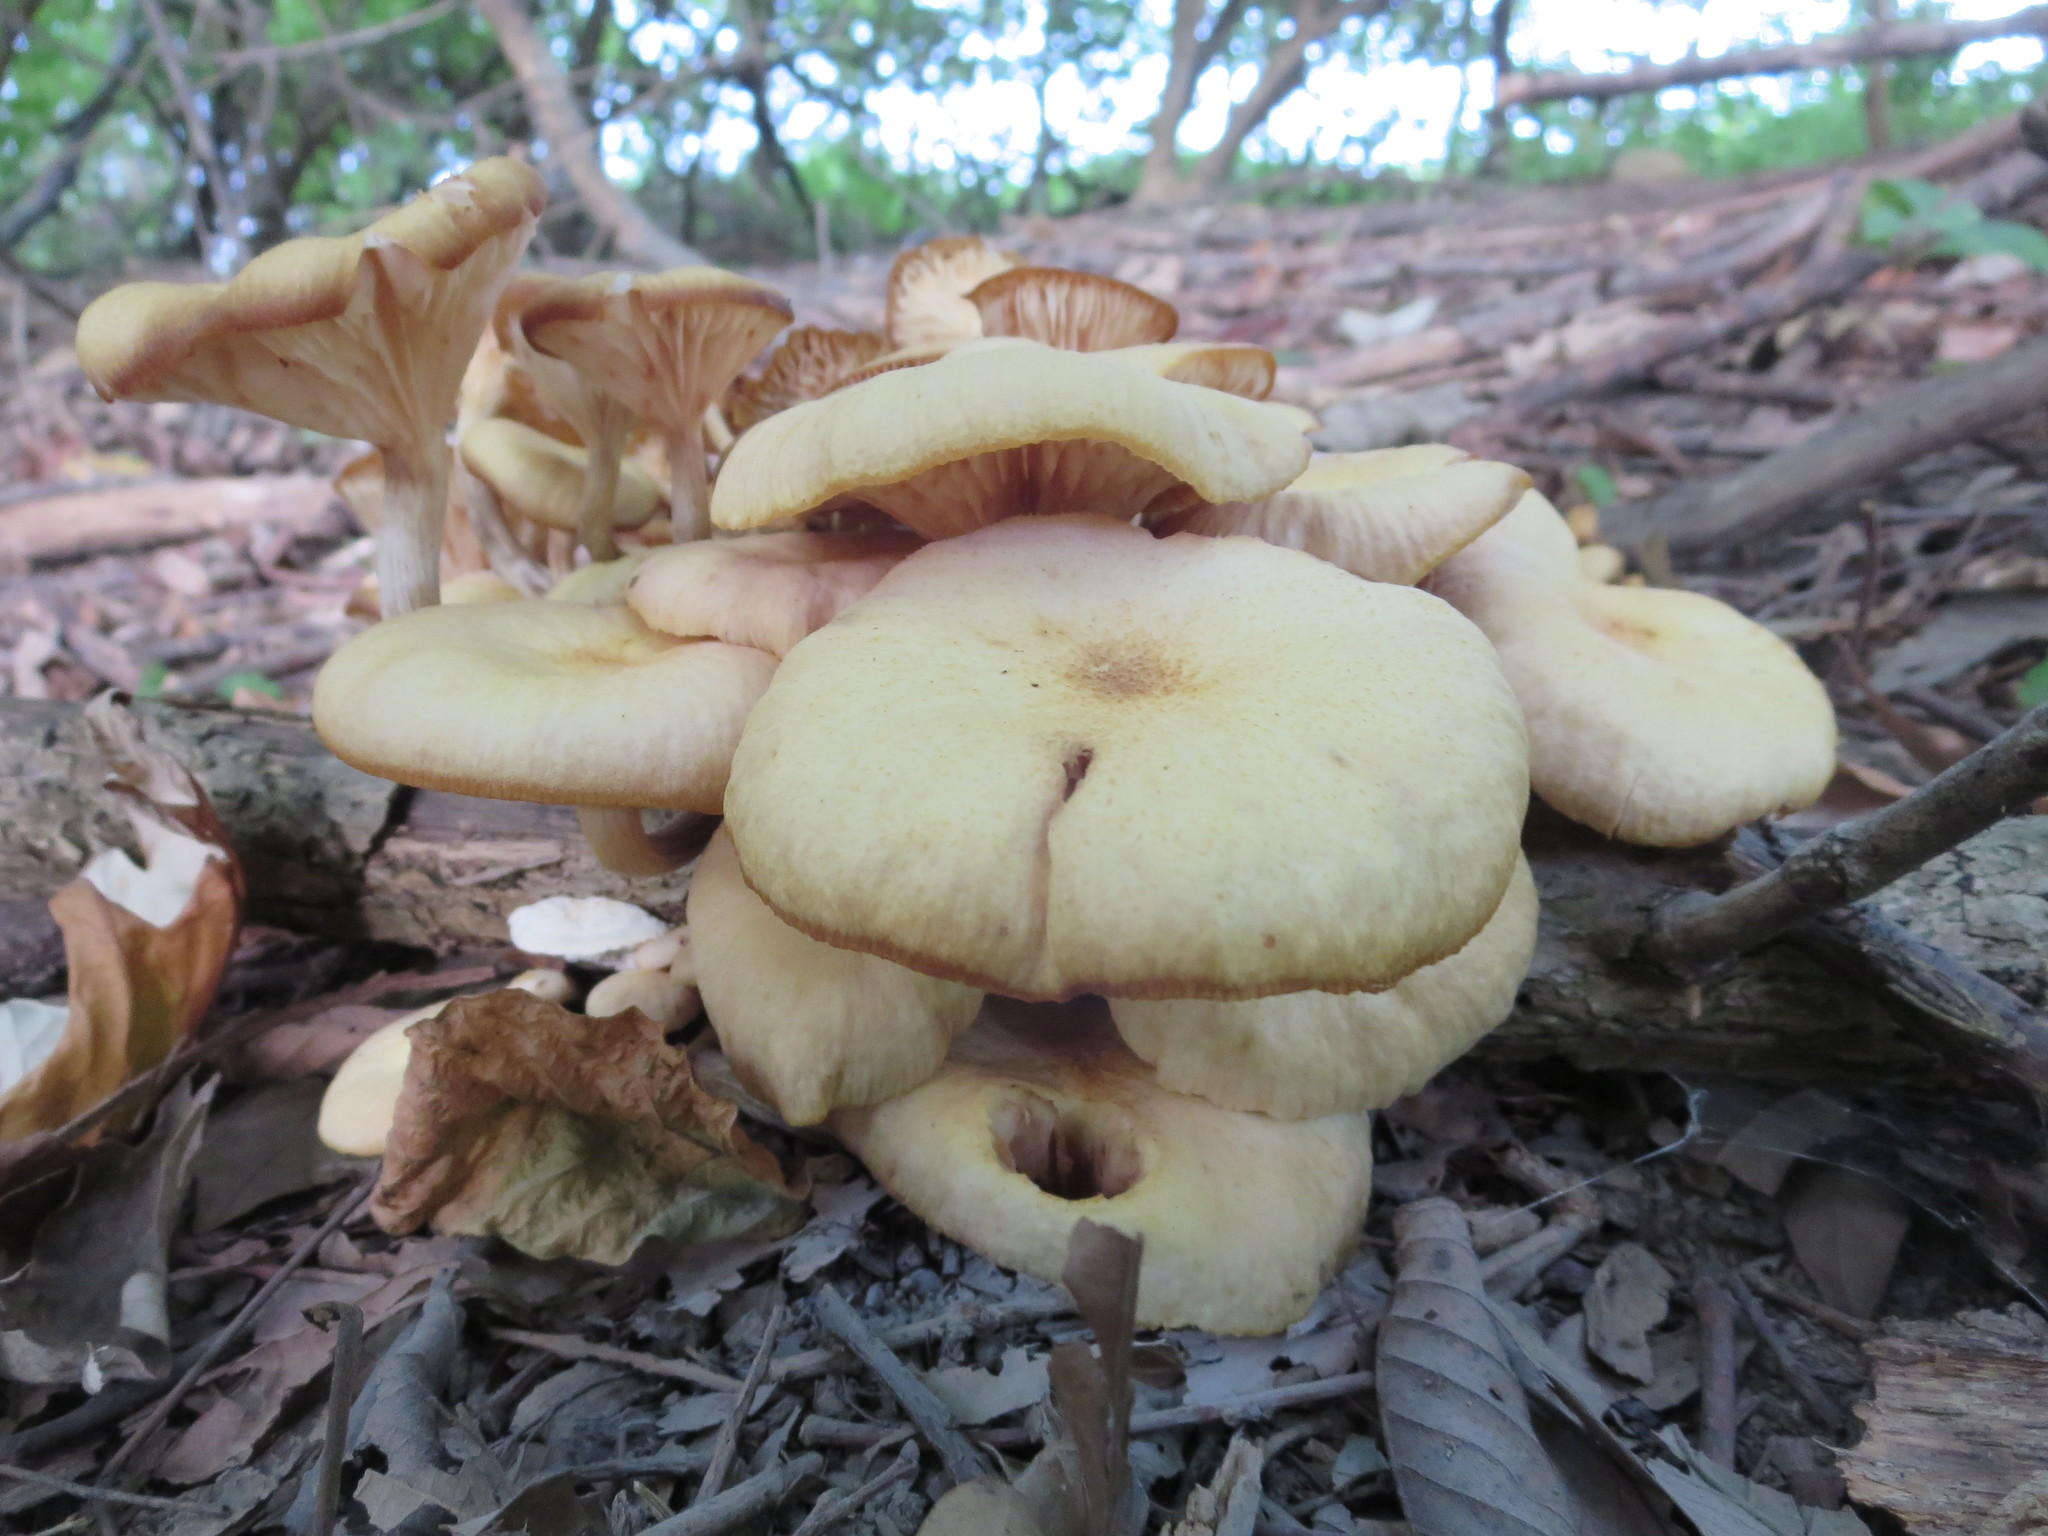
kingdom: Fungi
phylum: Basidiomycota
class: Agaricomycetes
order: Agaricales
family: Physalacriaceae
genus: Desarmillaria
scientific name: Desarmillaria caespitosa
